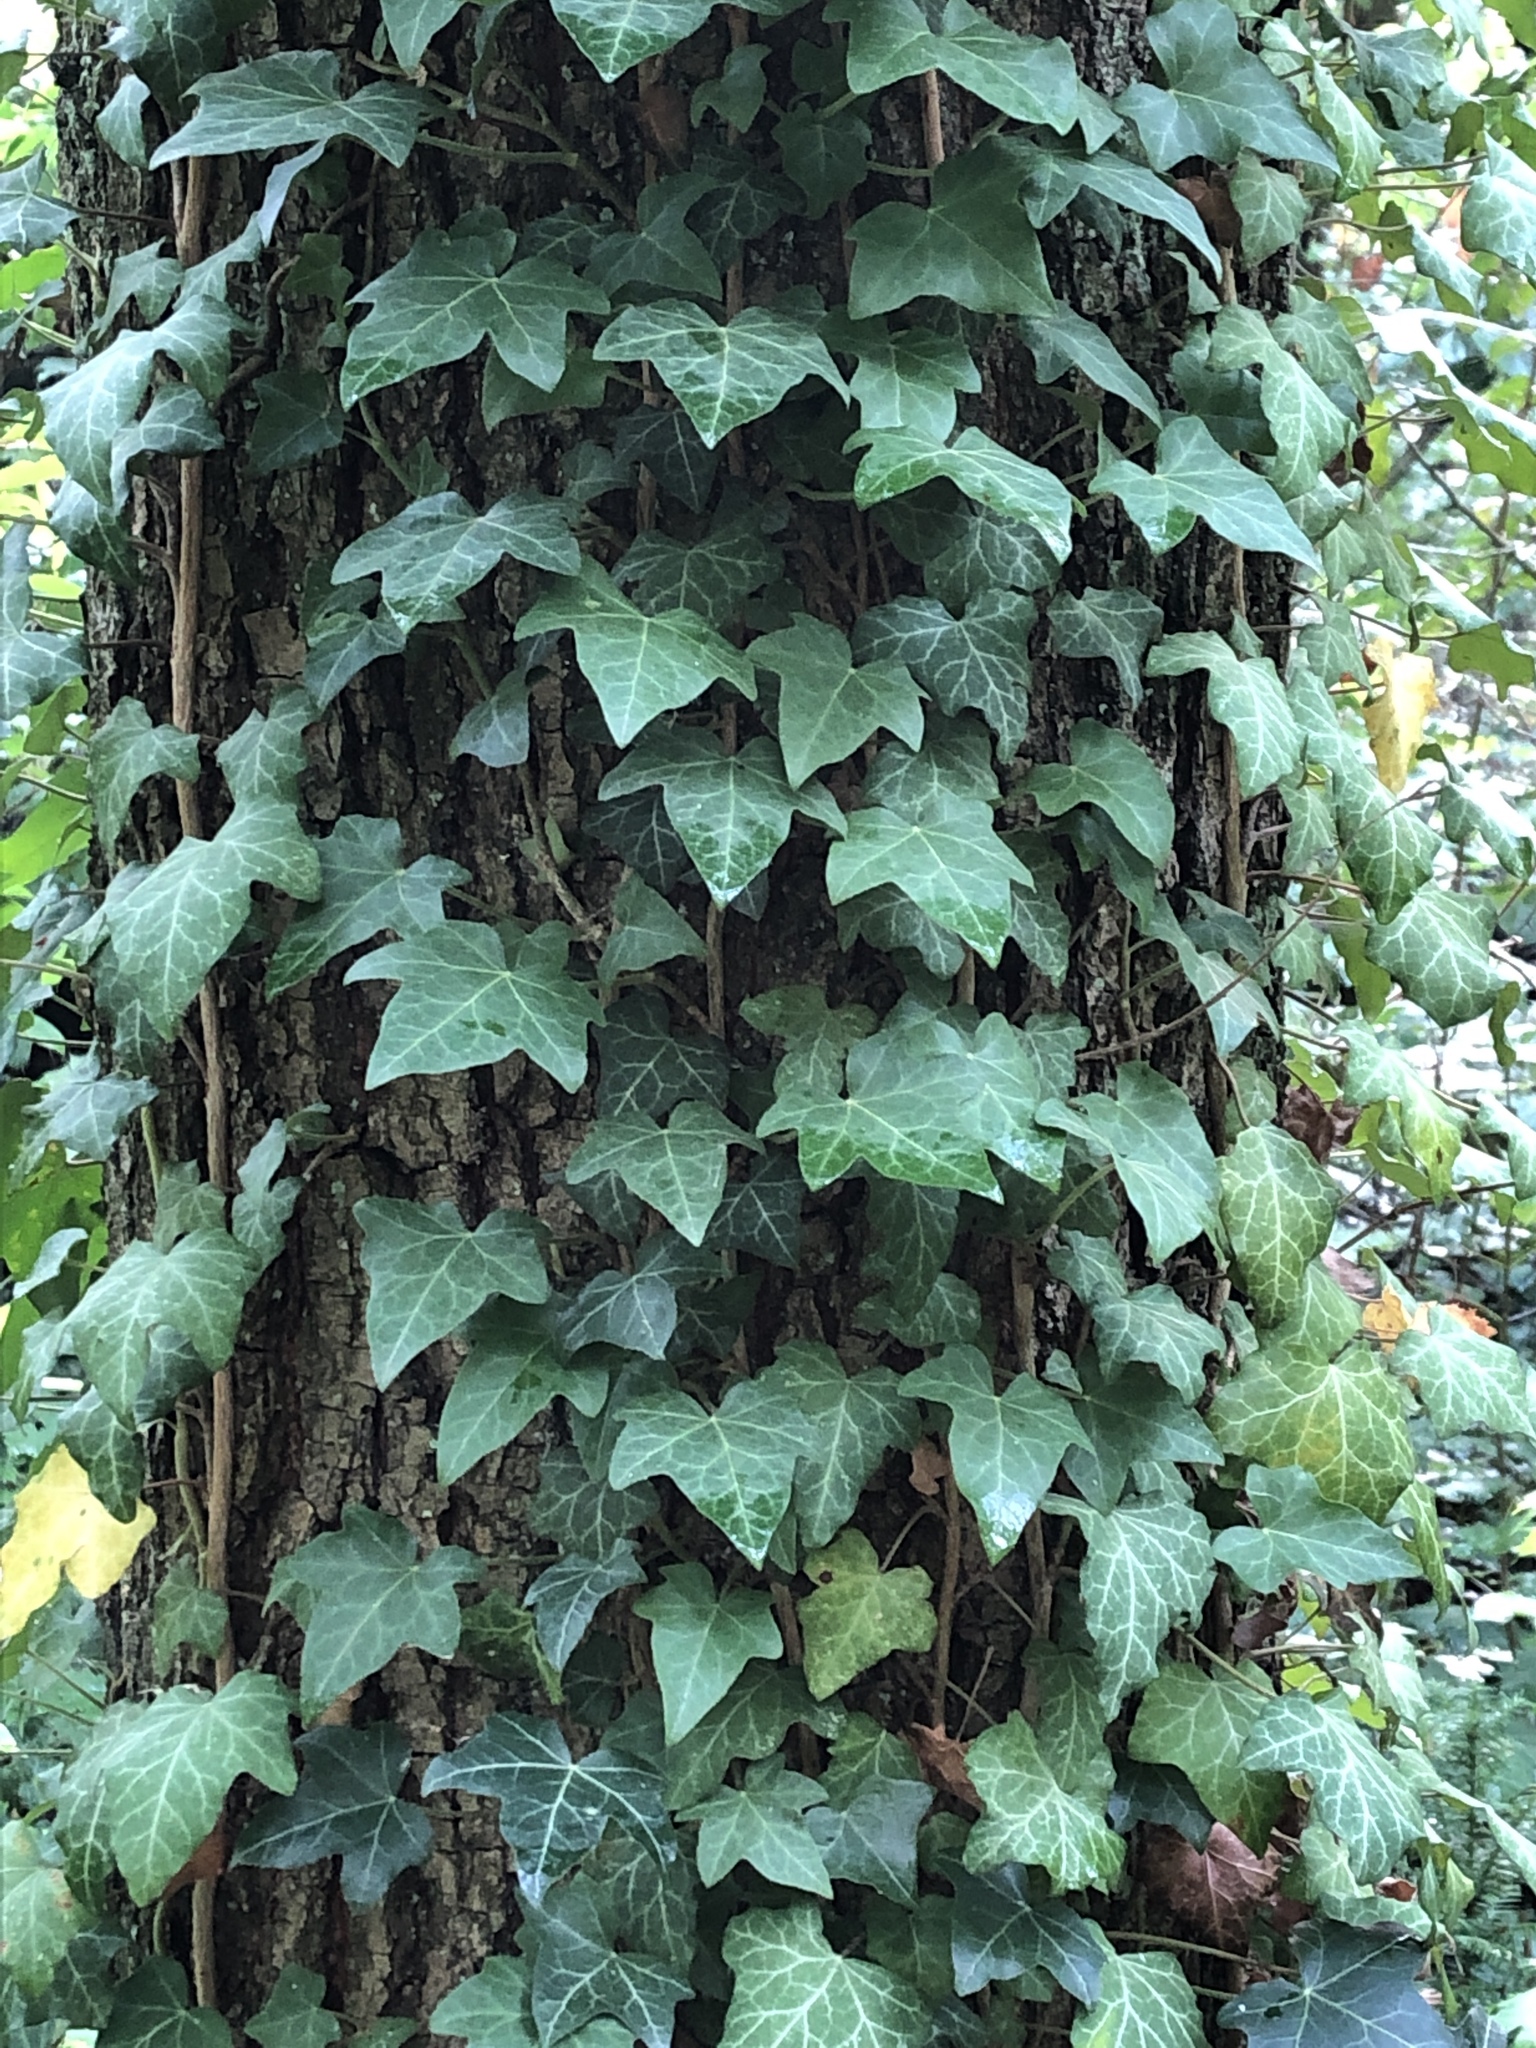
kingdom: Plantae
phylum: Tracheophyta
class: Magnoliopsida
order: Apiales
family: Araliaceae
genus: Hedera
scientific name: Hedera helix
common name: Ivy
